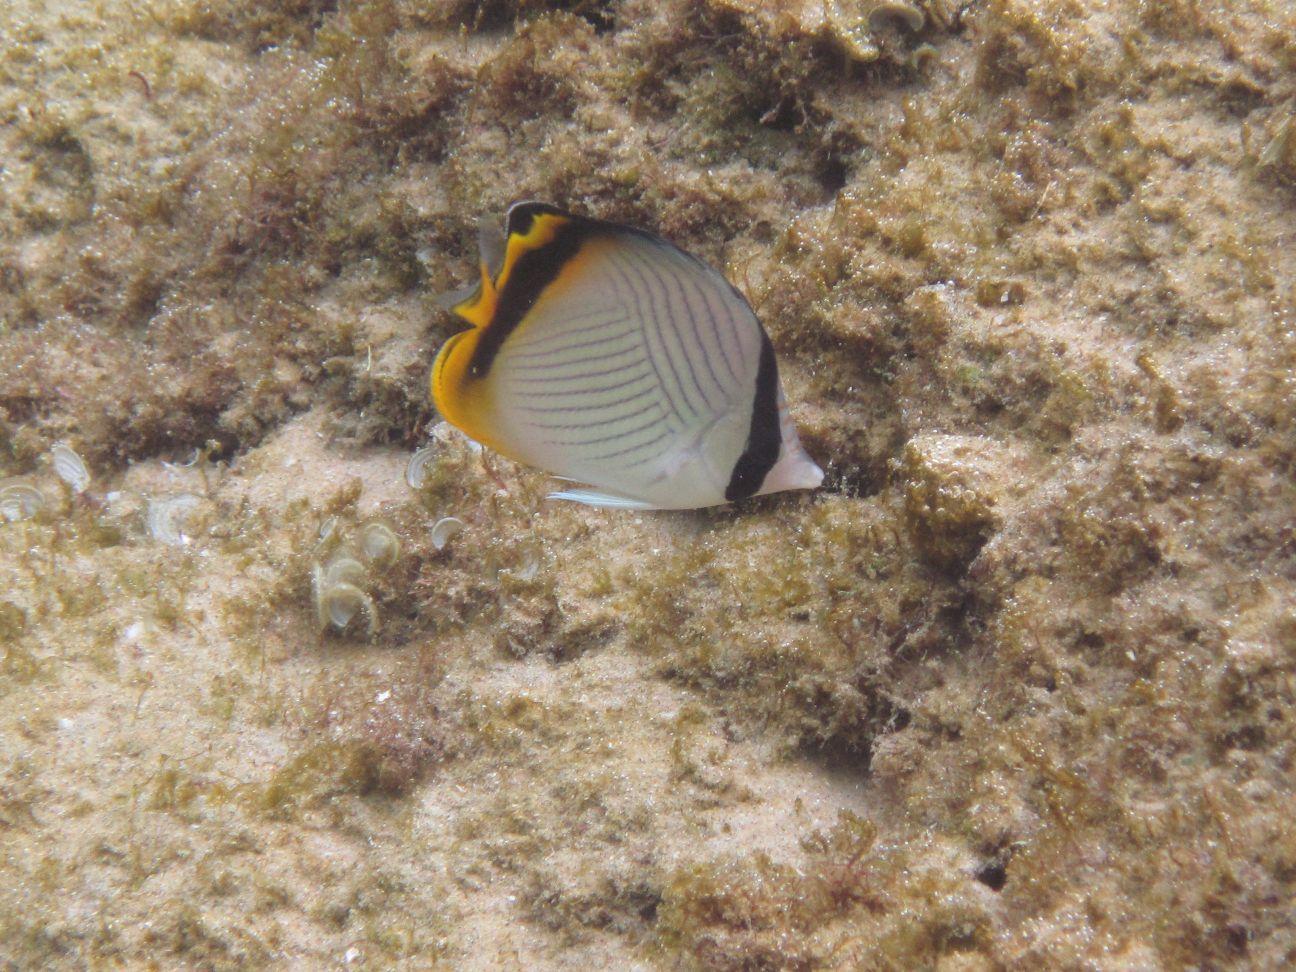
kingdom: Animalia
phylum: Chordata
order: Perciformes
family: Chaetodontidae
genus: Chaetodon
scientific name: Chaetodon vagabundus
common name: Vagabond butterflyfish
